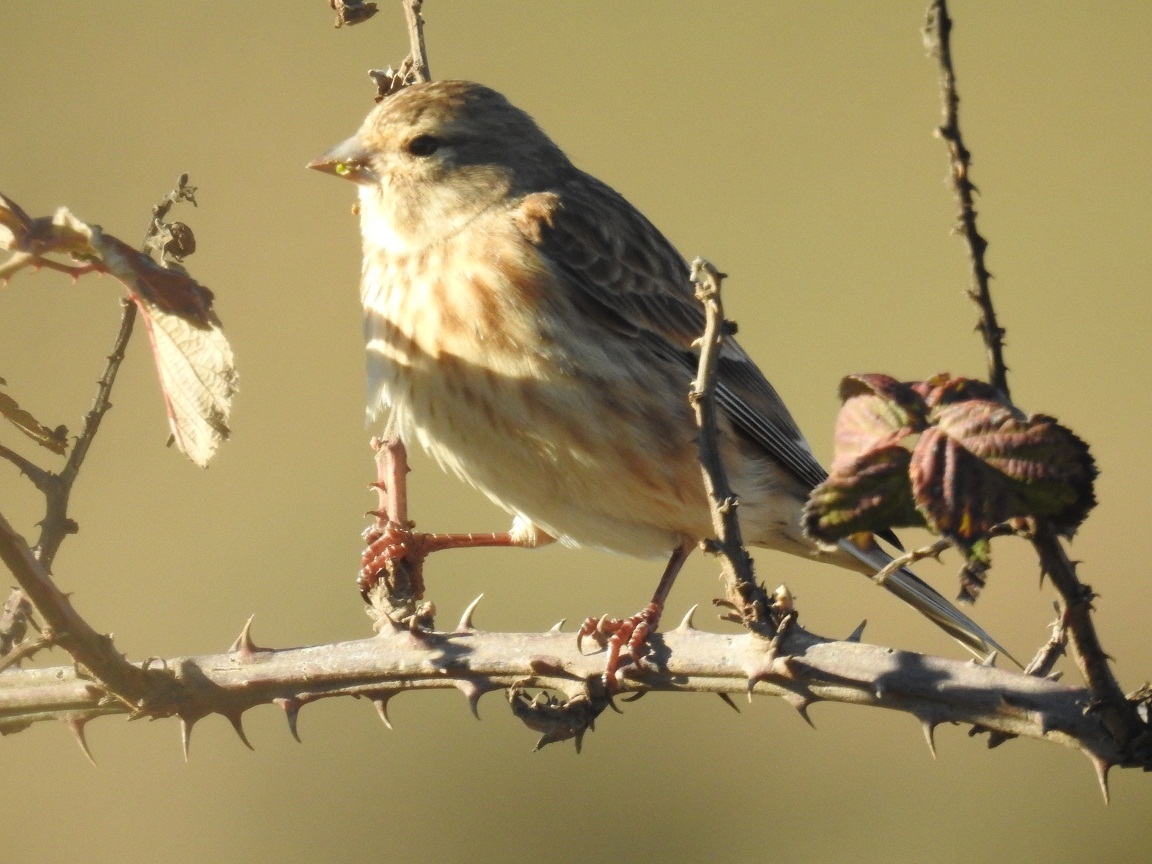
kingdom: Animalia
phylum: Chordata
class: Aves
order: Passeriformes
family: Fringillidae
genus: Linaria
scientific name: Linaria cannabina
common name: Common linnet
